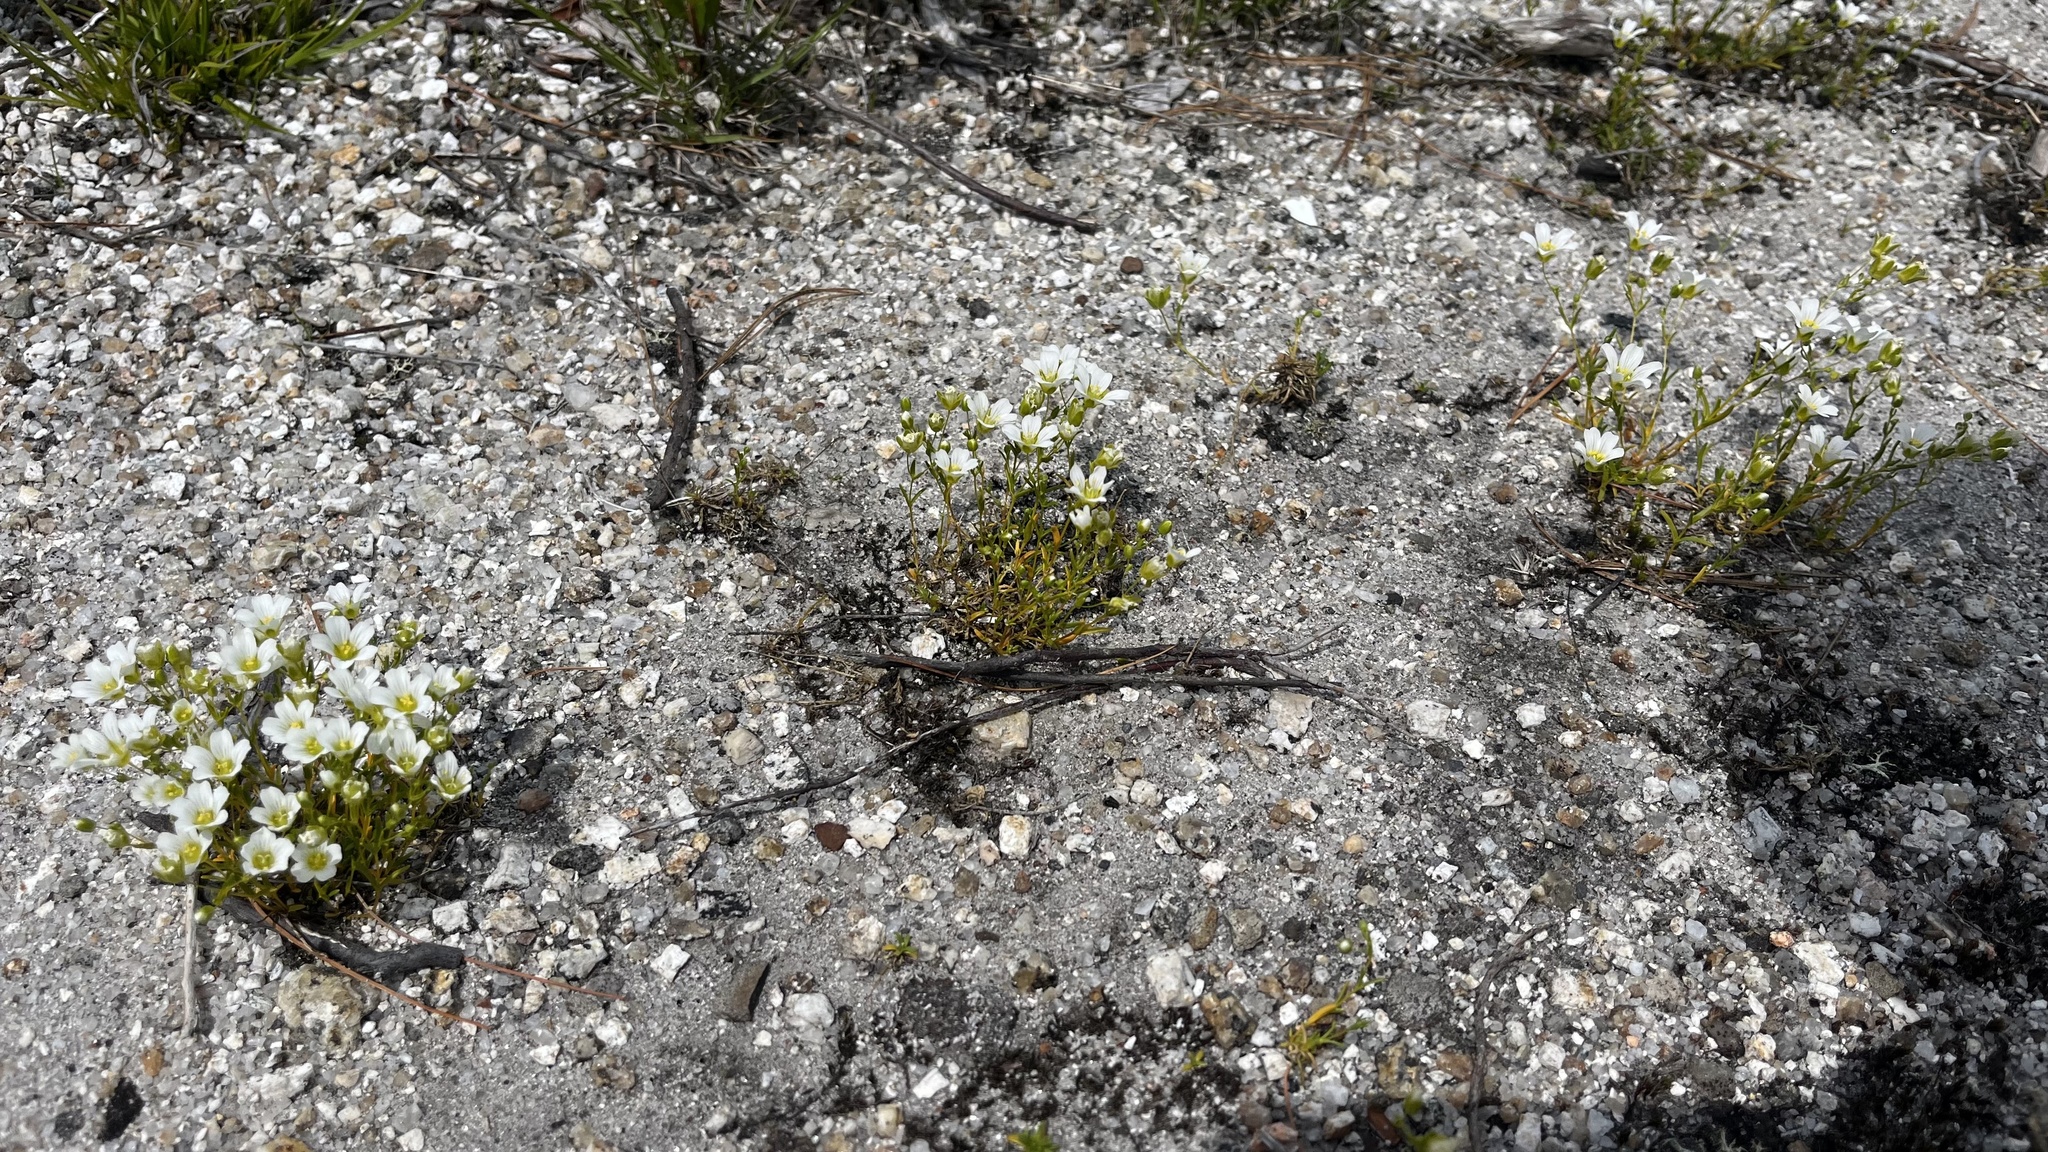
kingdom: Plantae
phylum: Tracheophyta
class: Magnoliopsida
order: Caryophyllales
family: Caryophyllaceae
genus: Geocarpon
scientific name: Geocarpon groenlandicum
